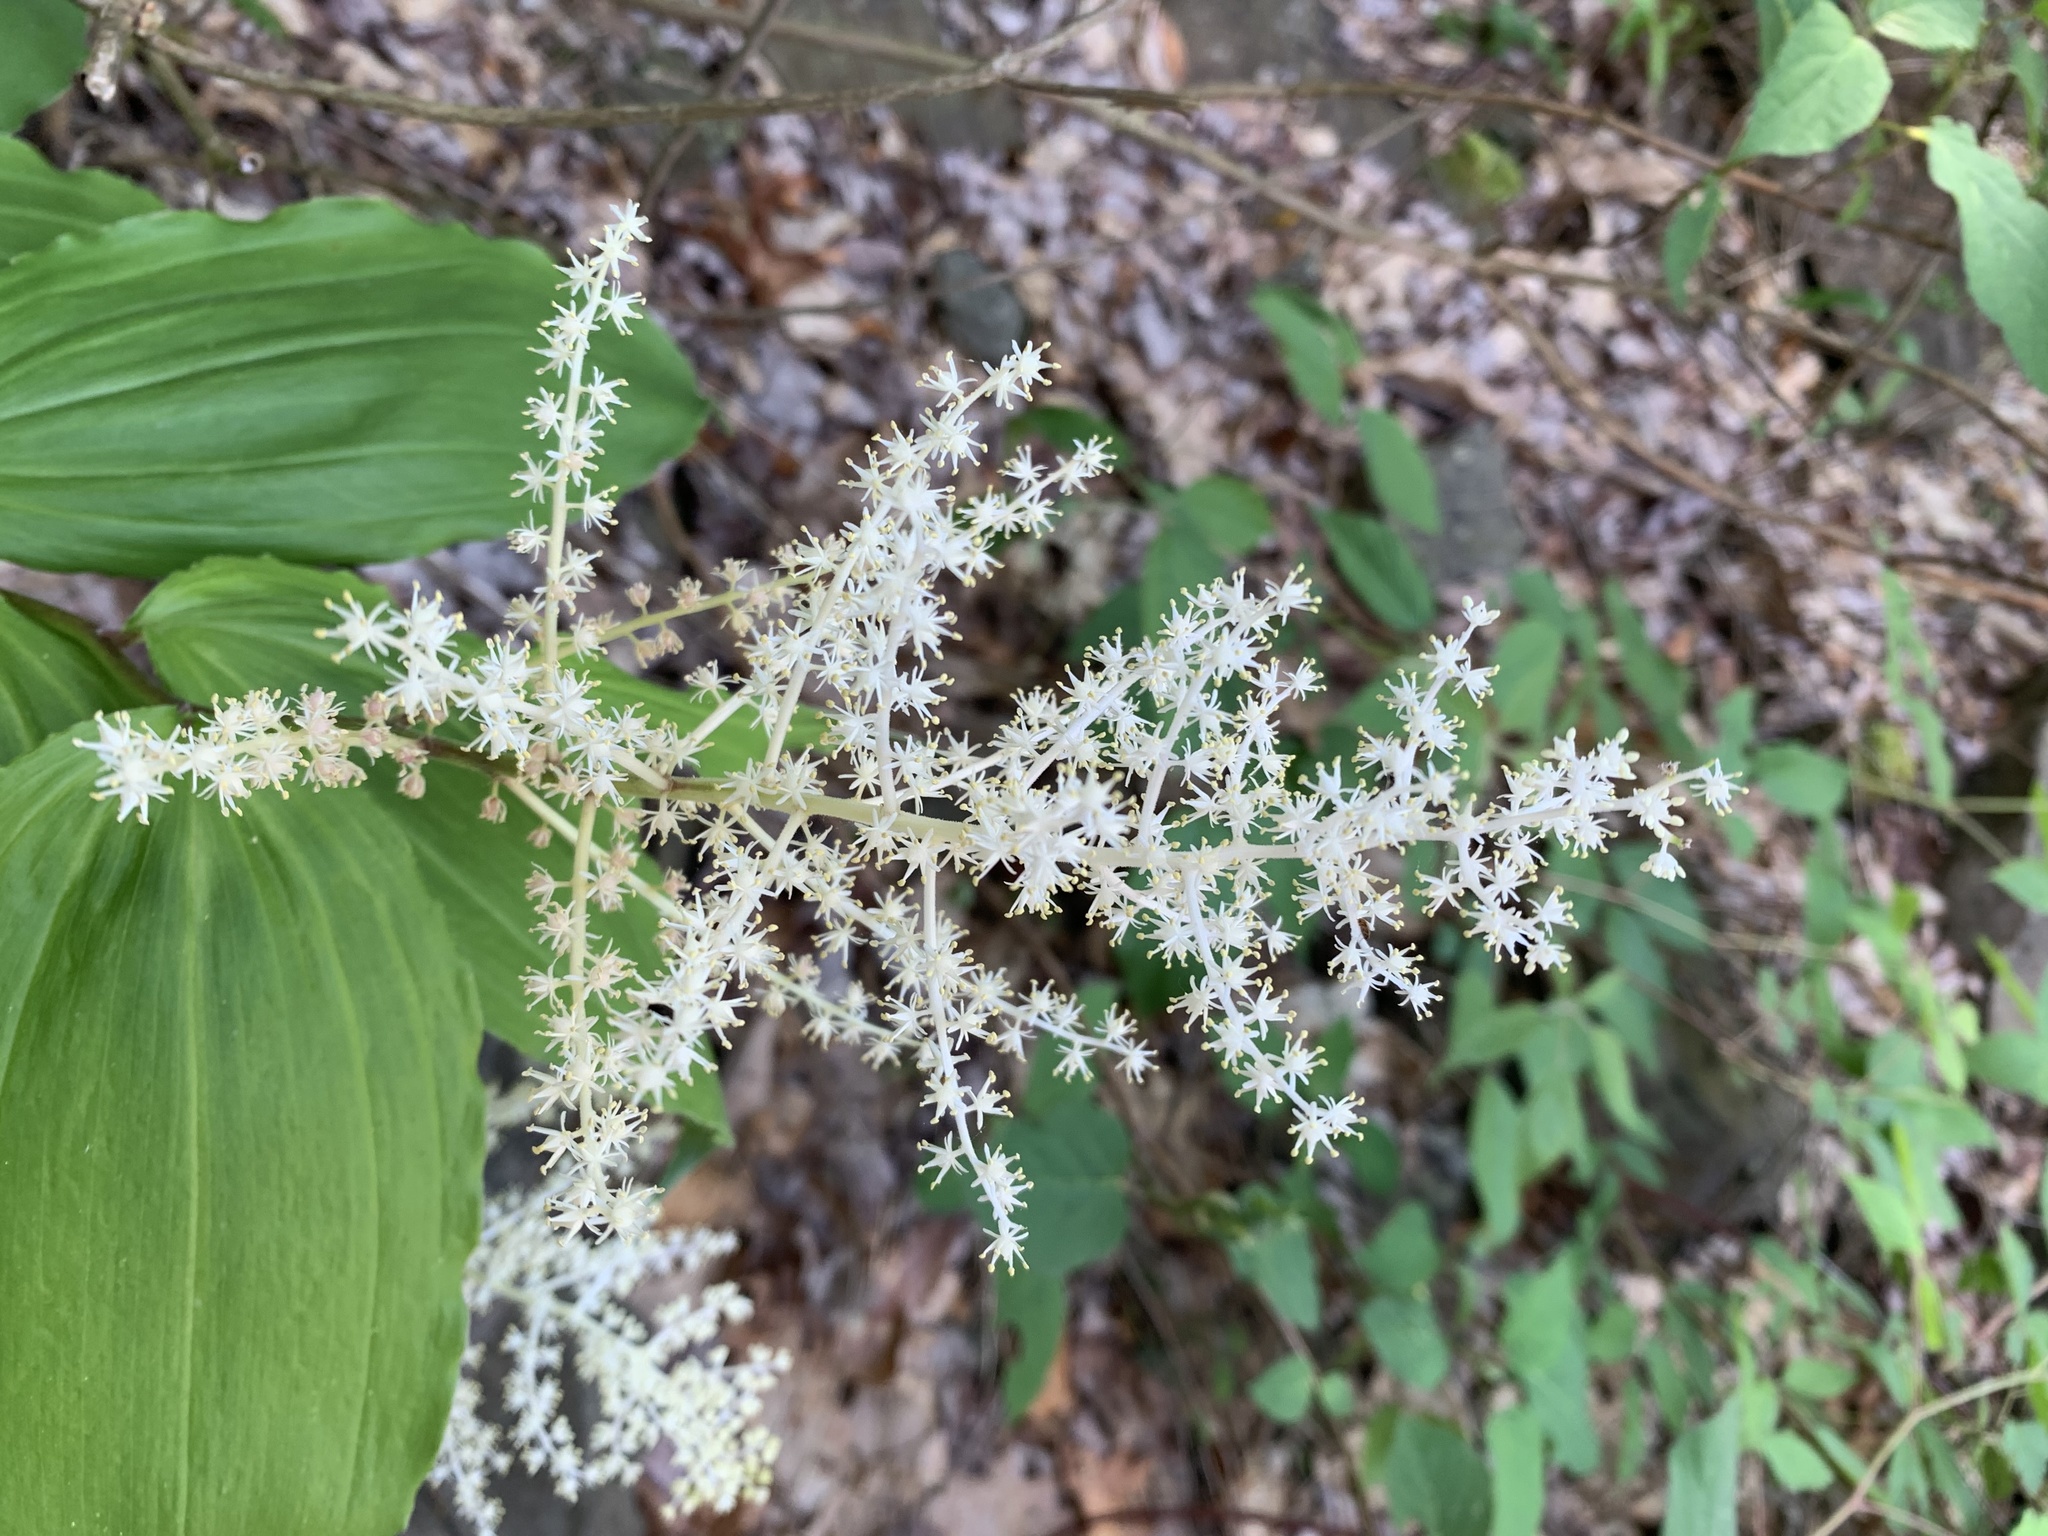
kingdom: Plantae
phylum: Tracheophyta
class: Liliopsida
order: Asparagales
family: Asparagaceae
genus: Maianthemum
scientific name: Maianthemum racemosum
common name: False spikenard
